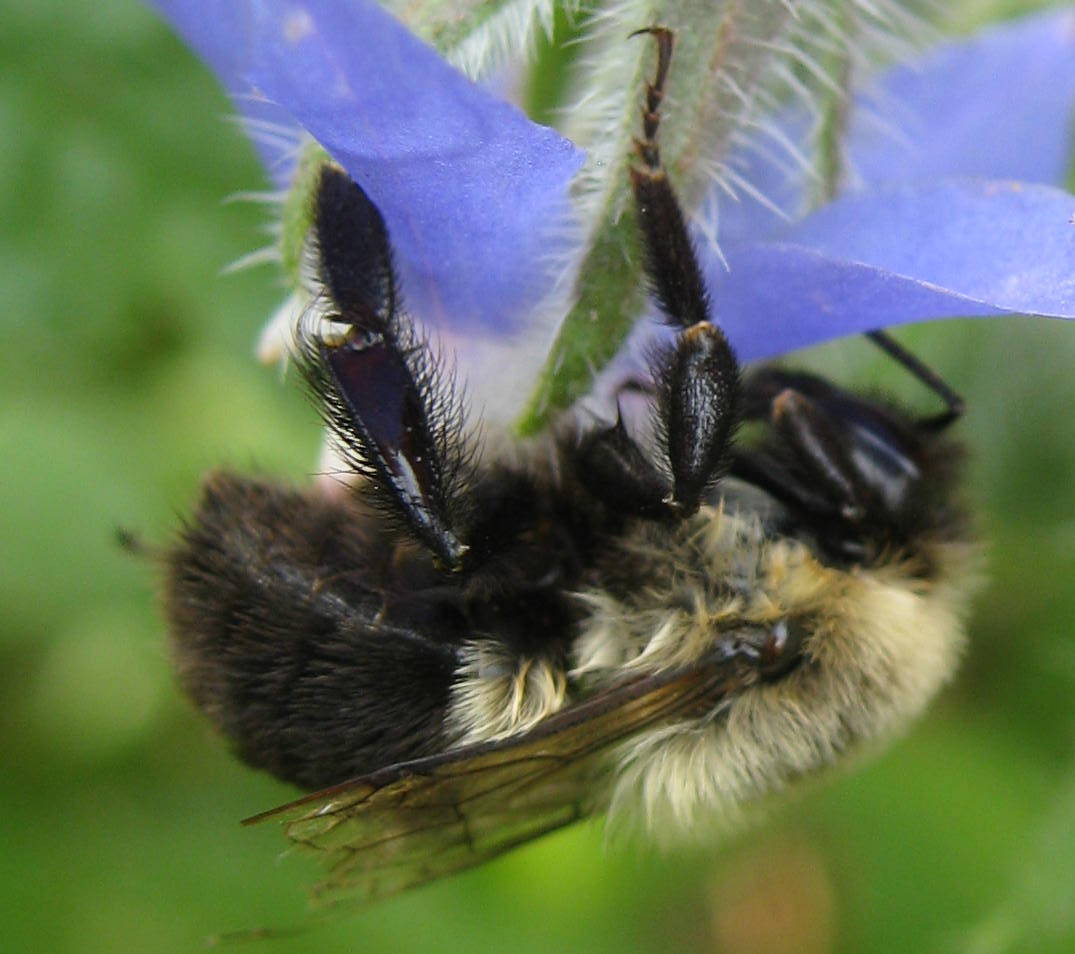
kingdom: Animalia
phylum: Arthropoda
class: Insecta
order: Hymenoptera
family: Apidae
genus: Bombus
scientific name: Bombus impatiens
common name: Common eastern bumble bee
